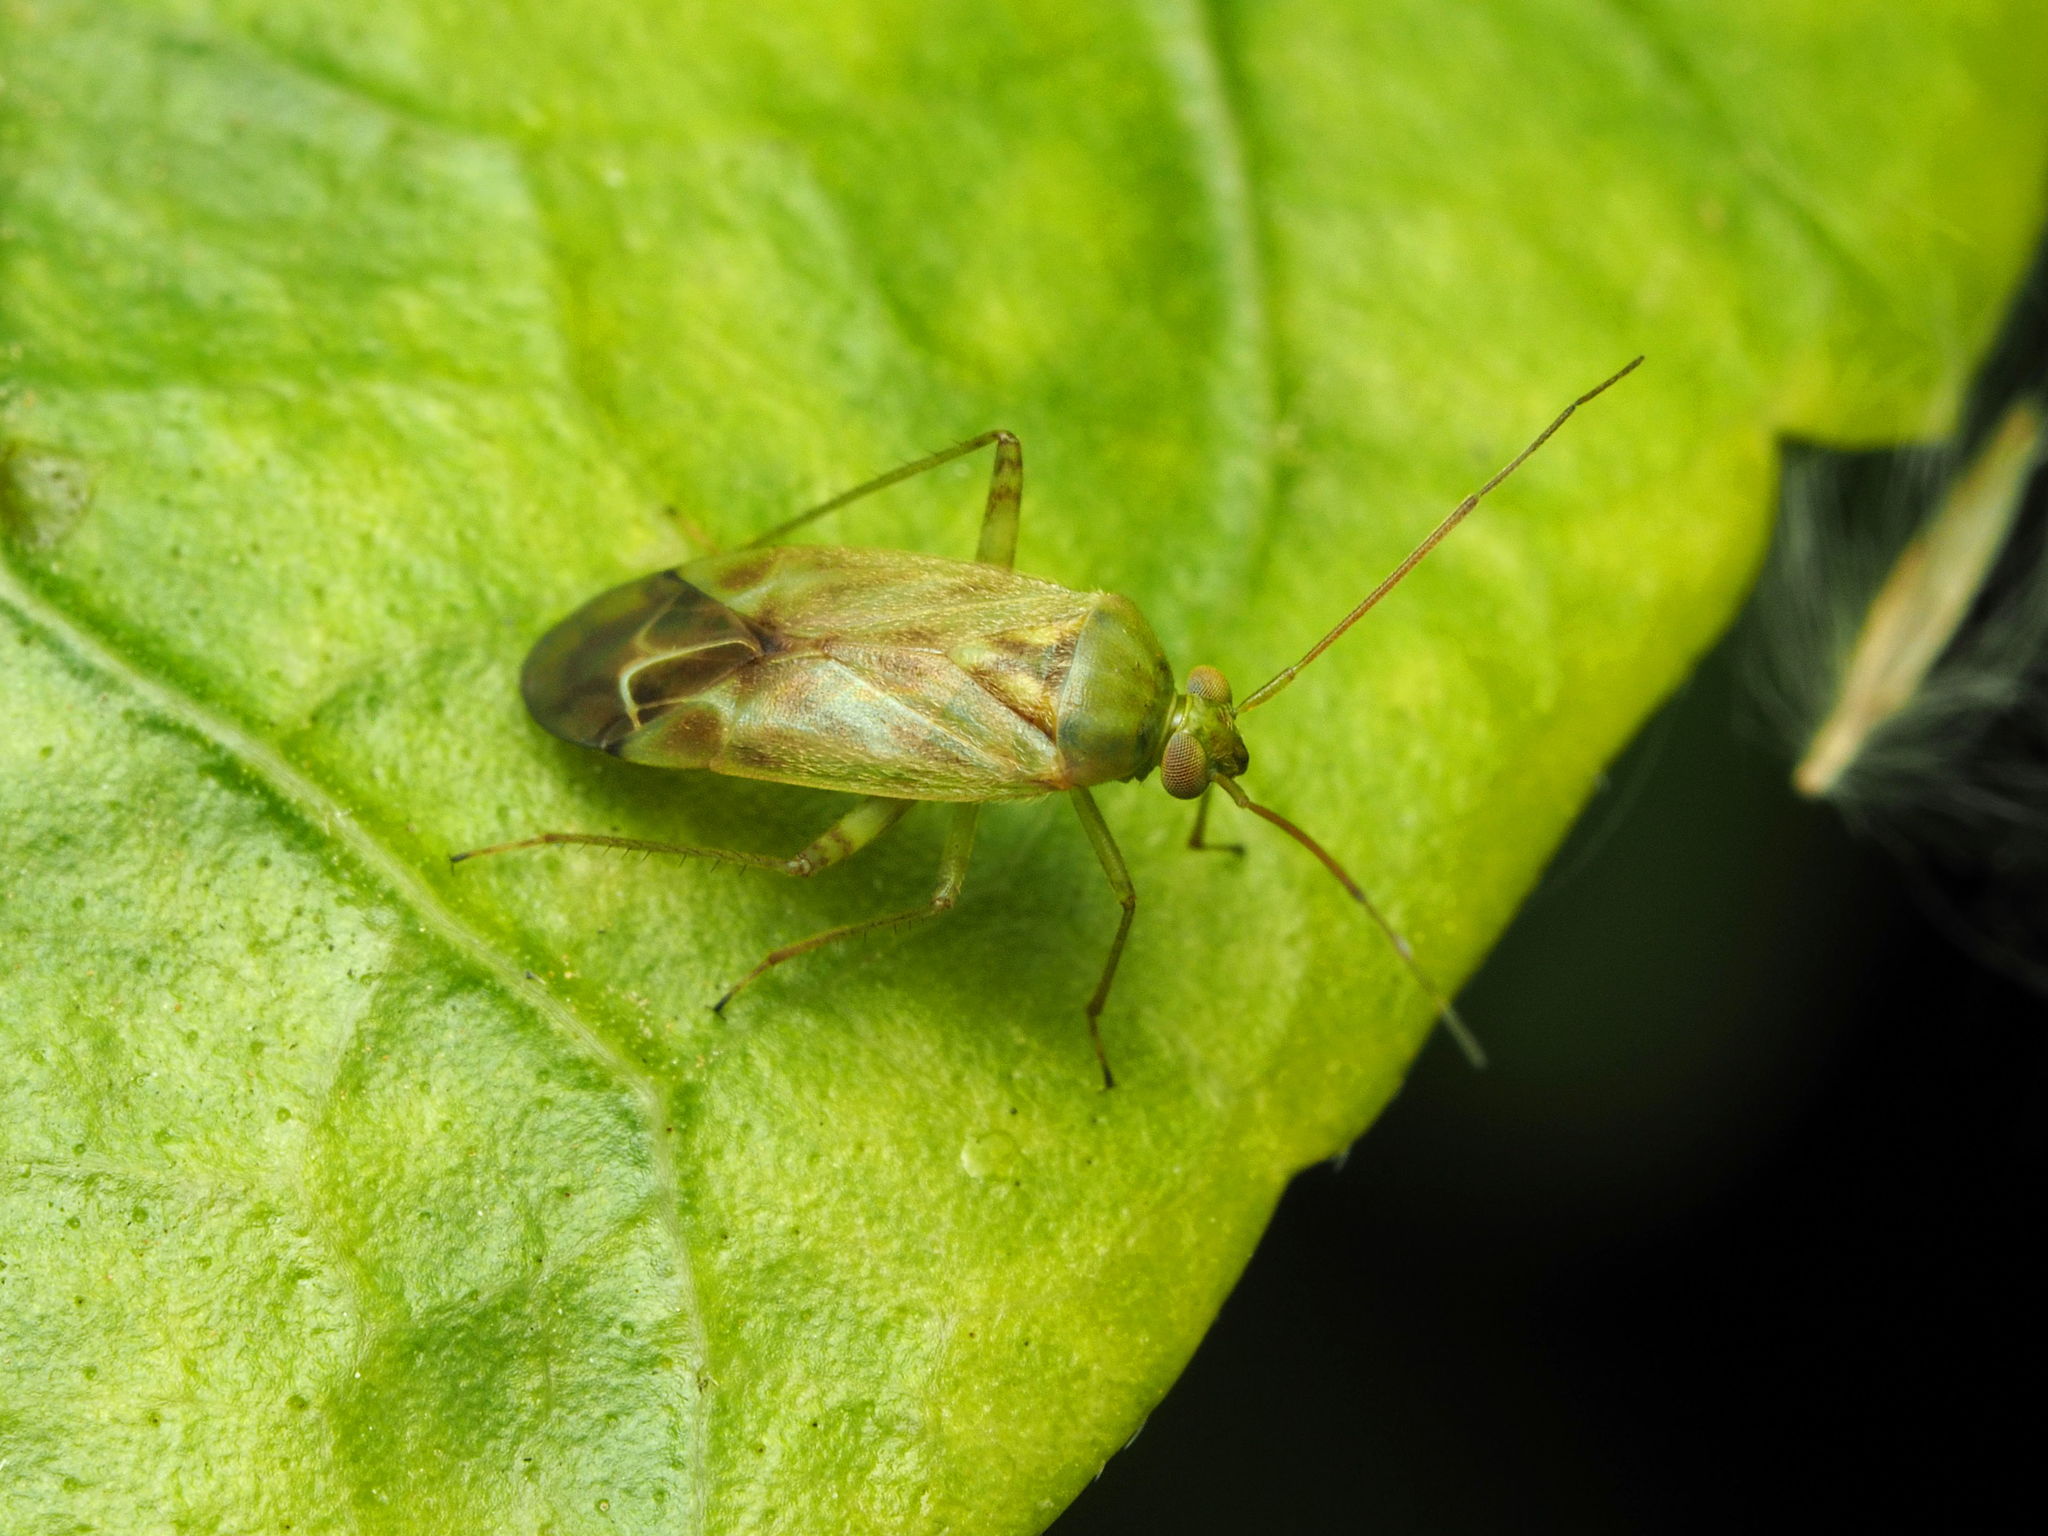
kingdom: Animalia
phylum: Arthropoda
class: Insecta
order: Hemiptera
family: Miridae
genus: Taylorilygus
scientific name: Taylorilygus apicalis
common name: Plant bug
